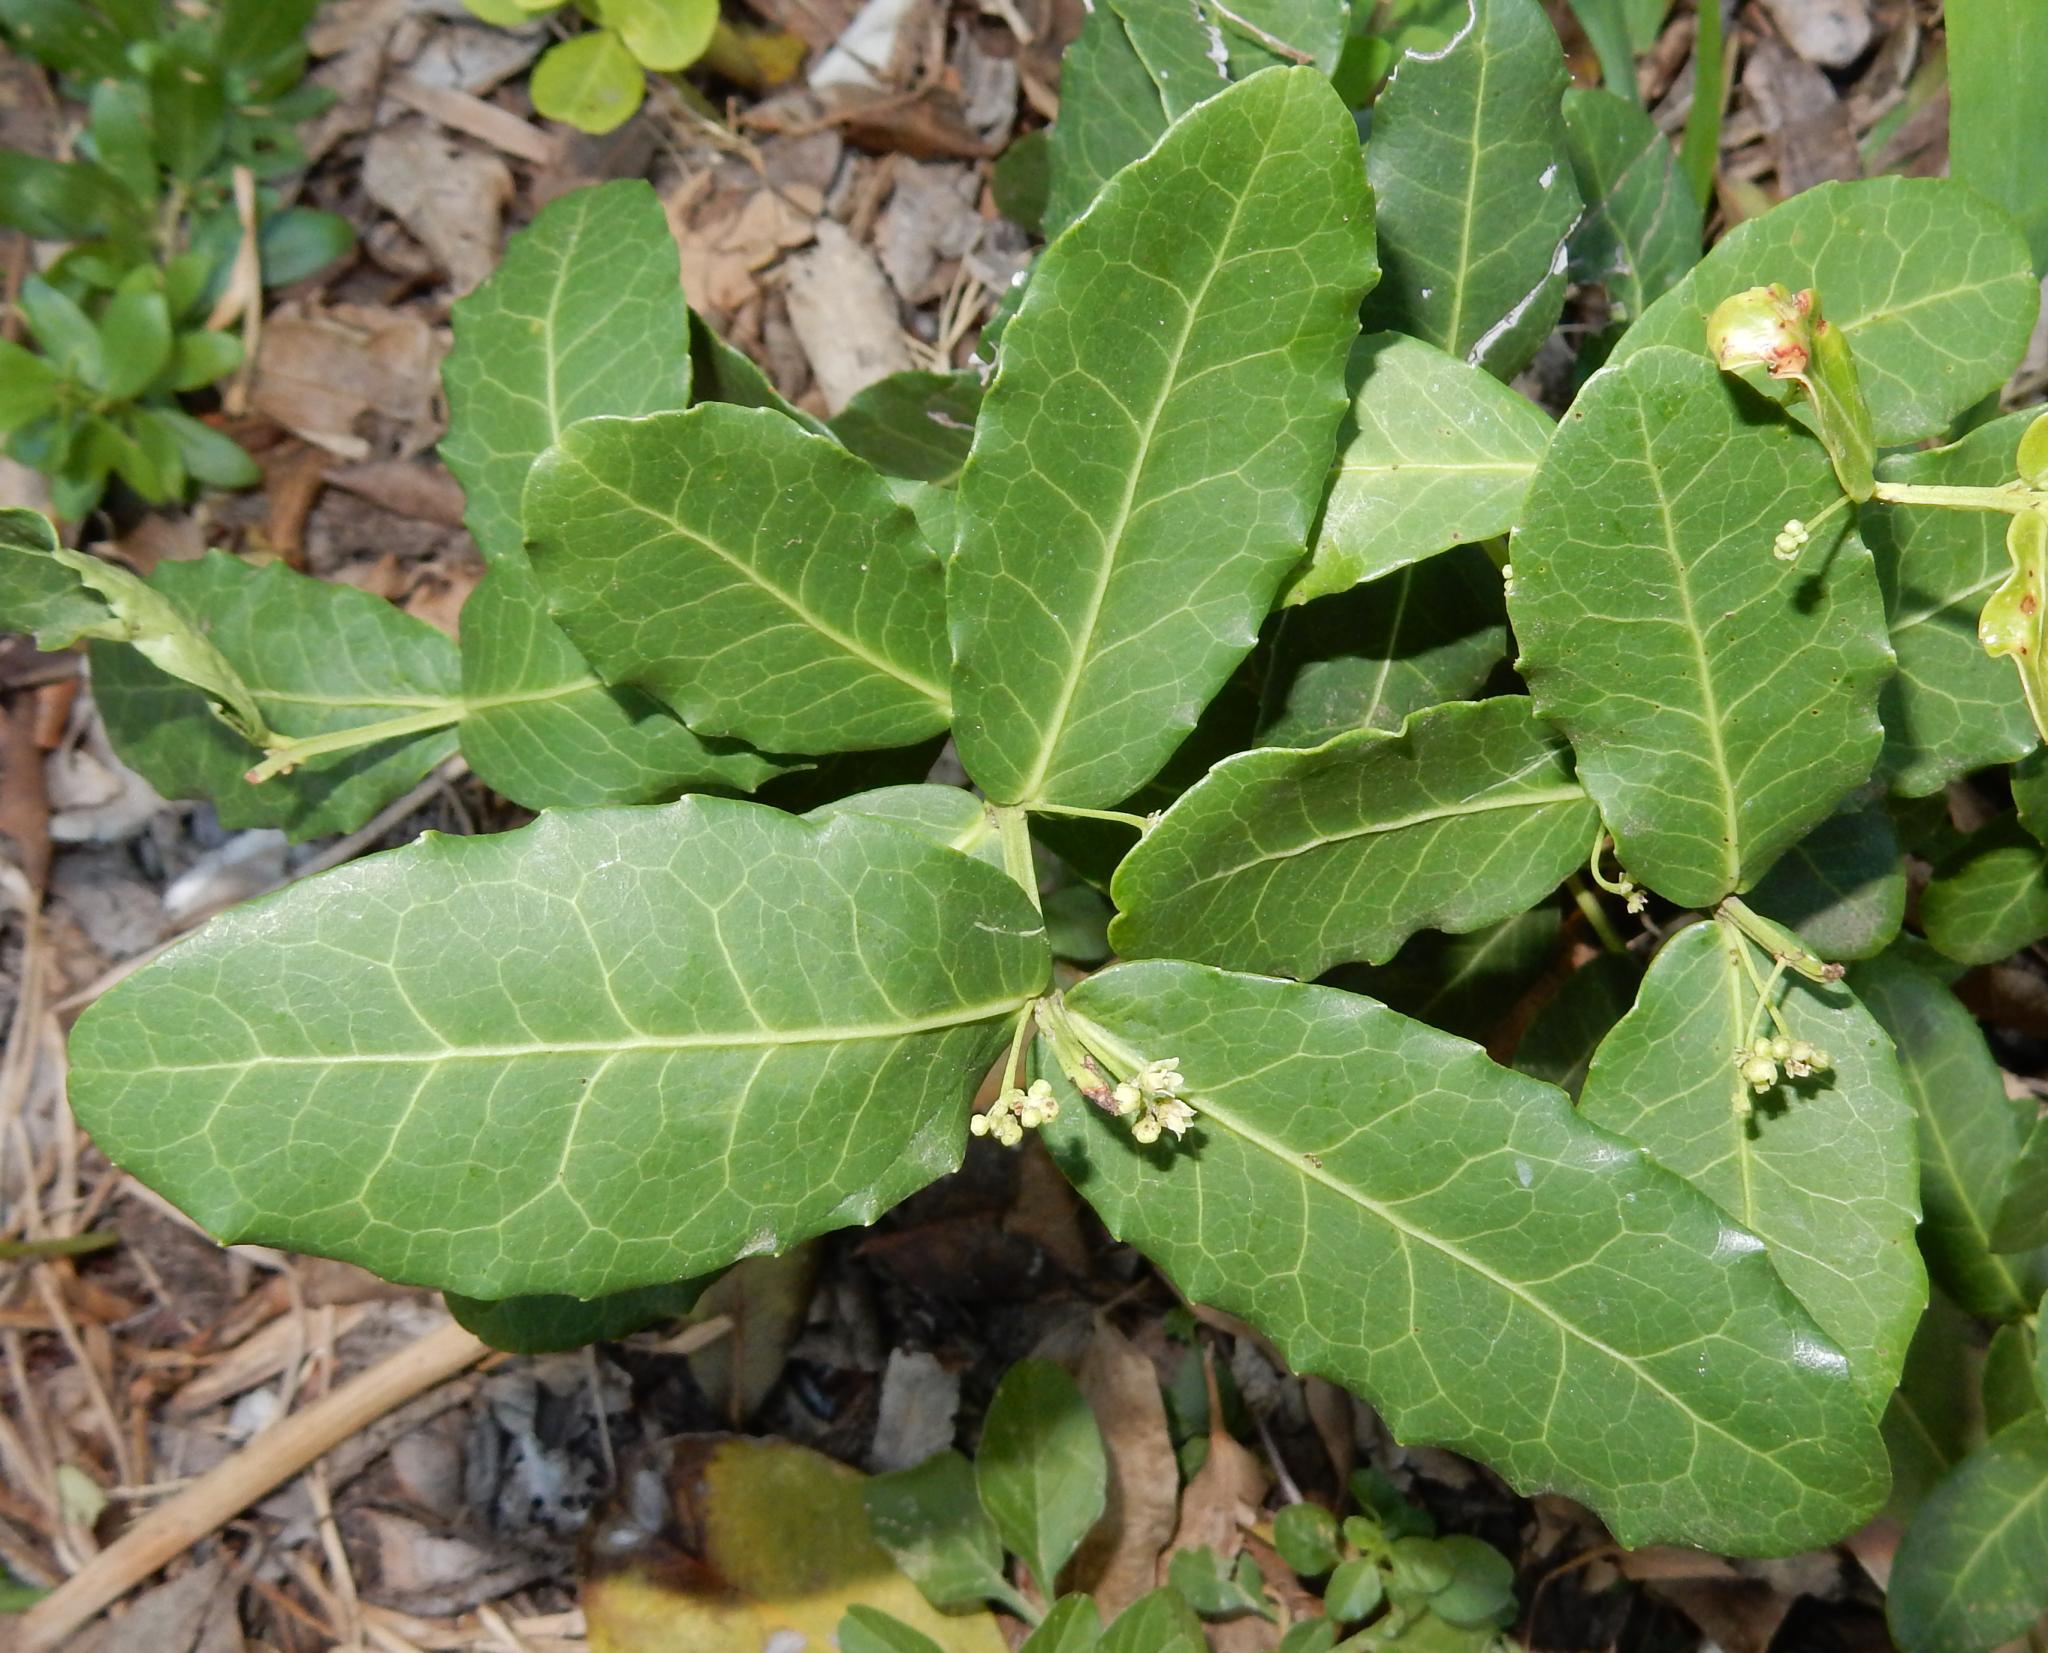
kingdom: Plantae
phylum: Tracheophyta
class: Magnoliopsida
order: Celastrales
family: Celastraceae
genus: Lauridia
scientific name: Lauridia tetragona
